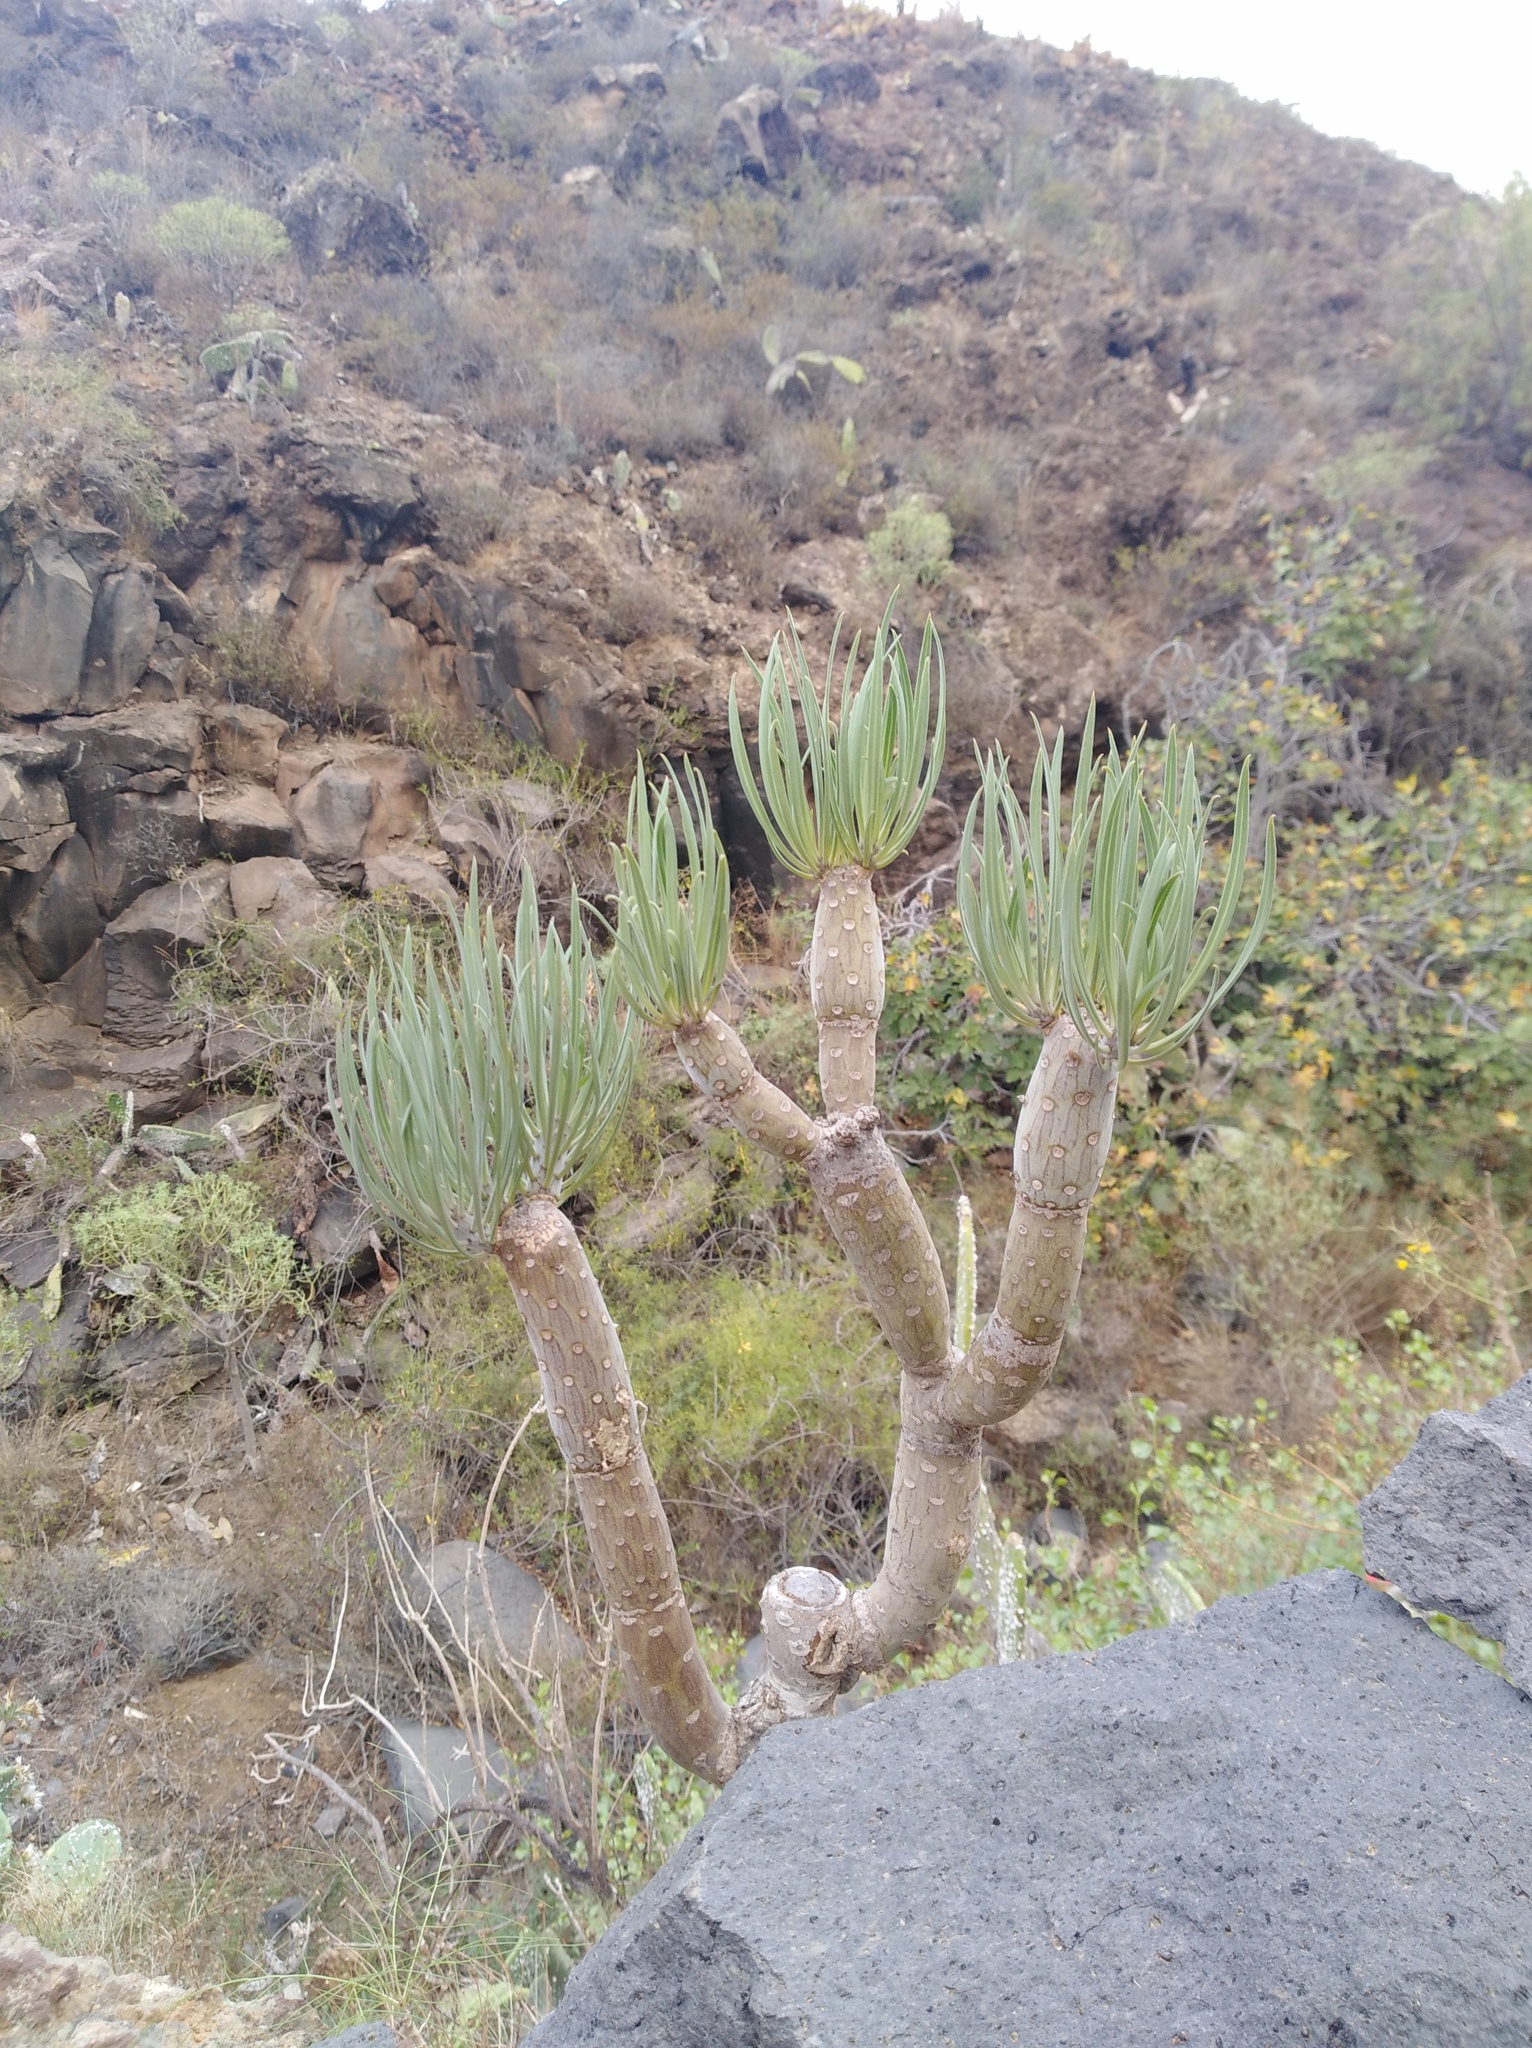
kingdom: Plantae
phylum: Tracheophyta
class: Magnoliopsida
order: Asterales
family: Asteraceae
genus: Kleinia
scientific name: Kleinia neriifolia
